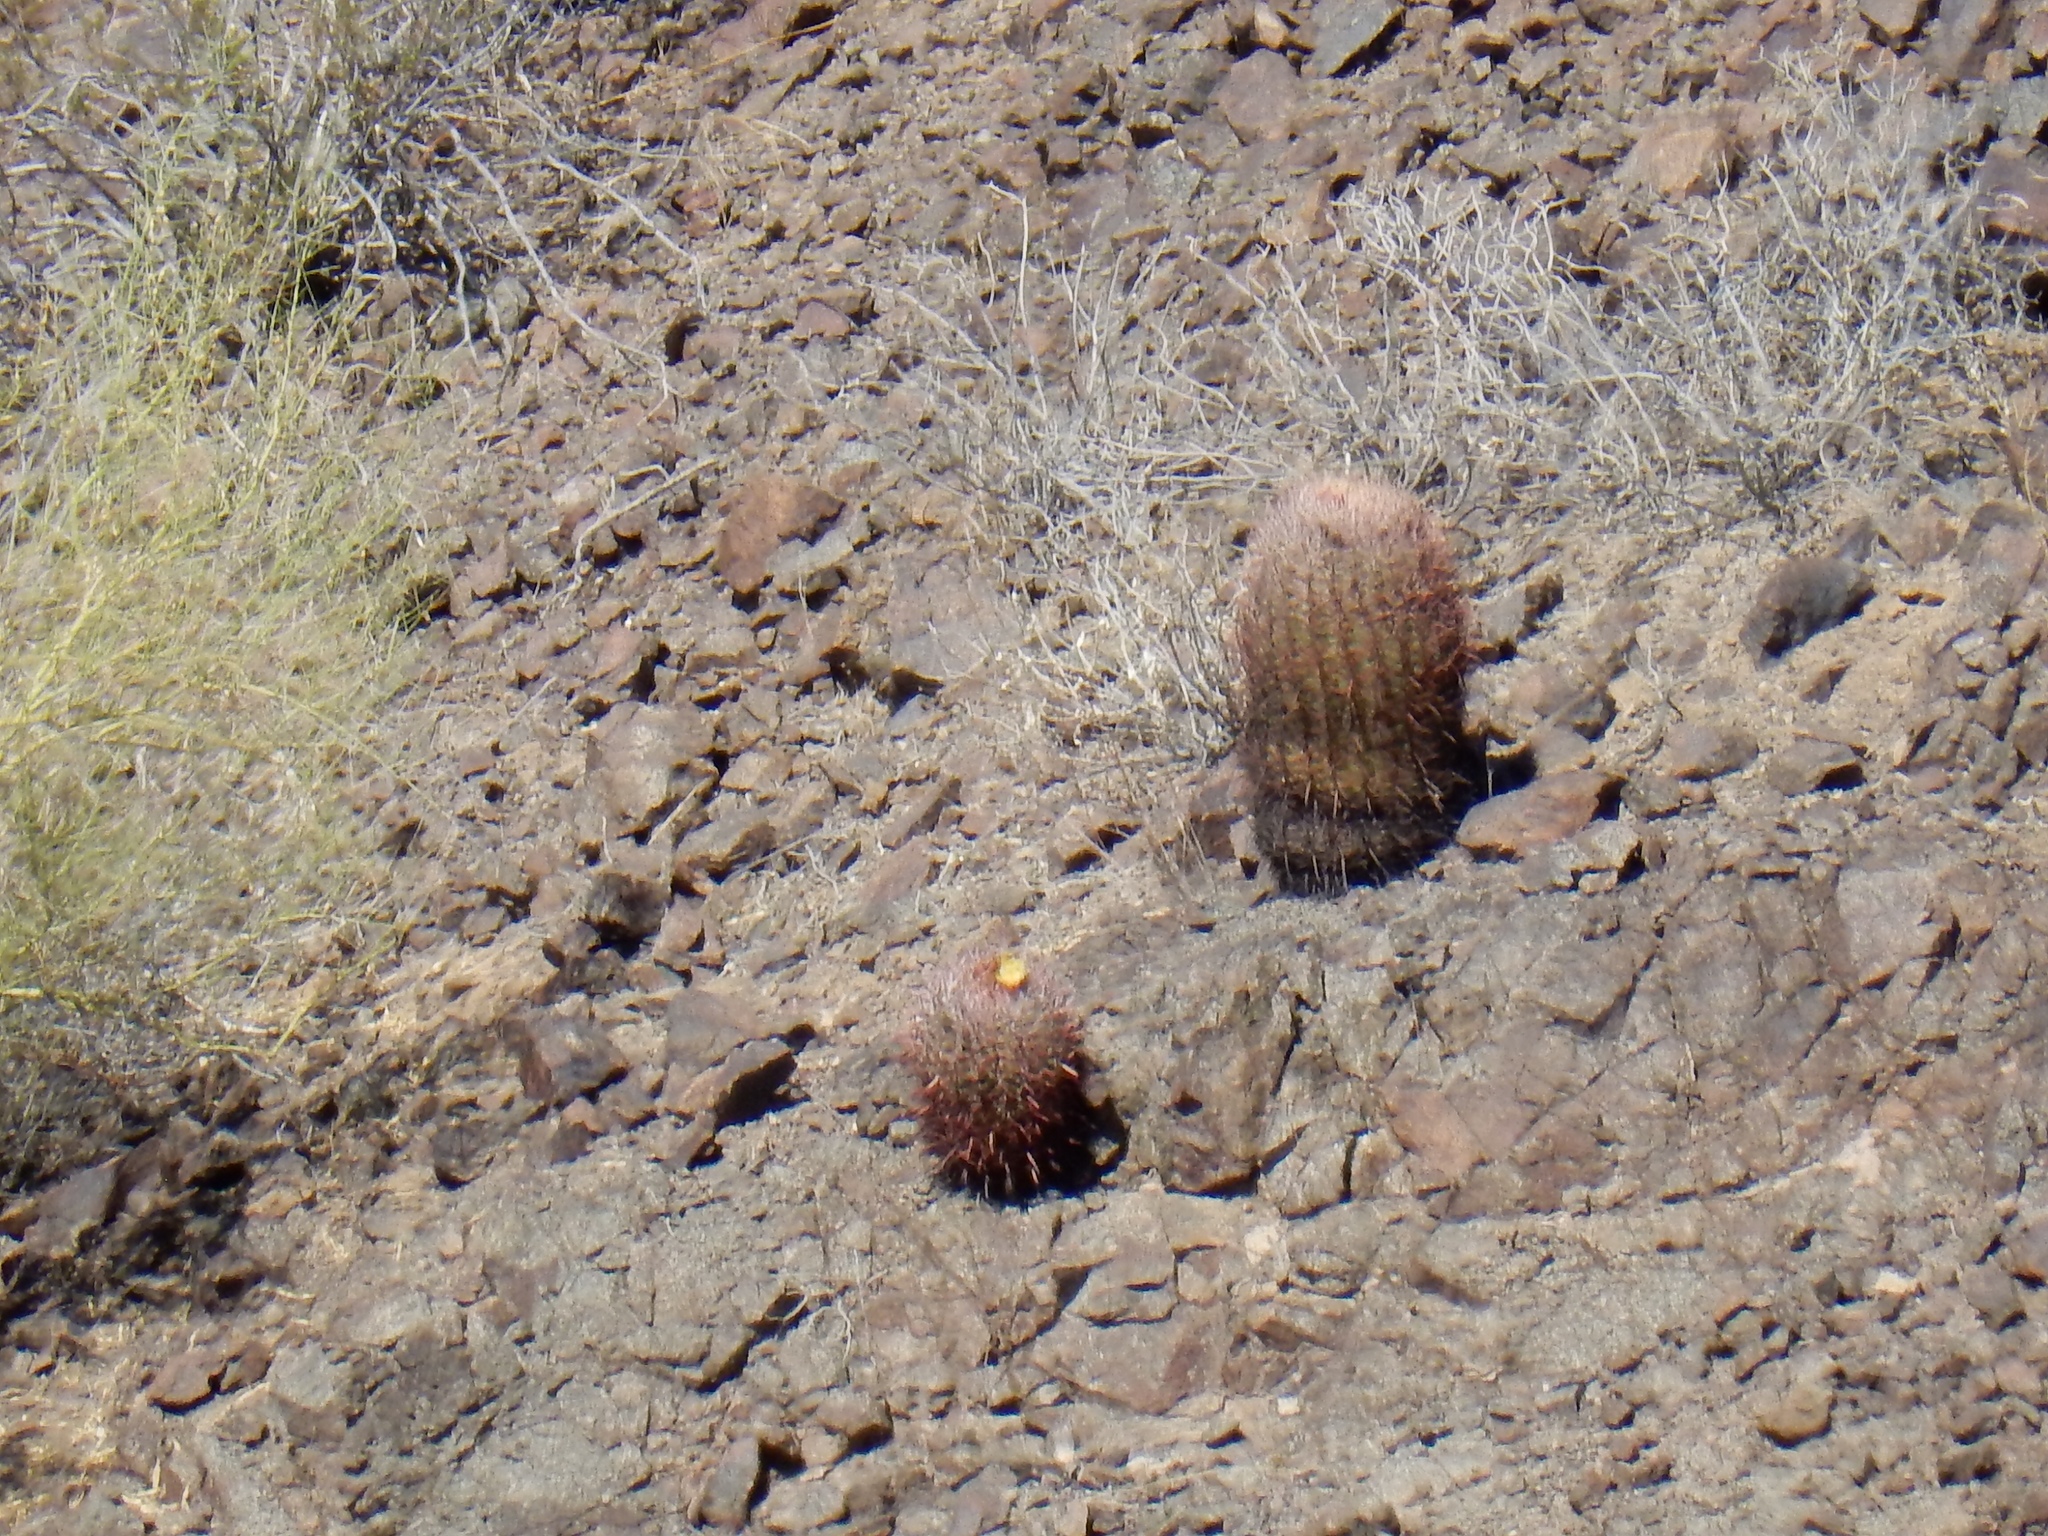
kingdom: Plantae
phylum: Tracheophyta
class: Magnoliopsida
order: Caryophyllales
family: Cactaceae
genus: Ferocactus
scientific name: Ferocactus cylindraceus
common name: California barrel cactus
